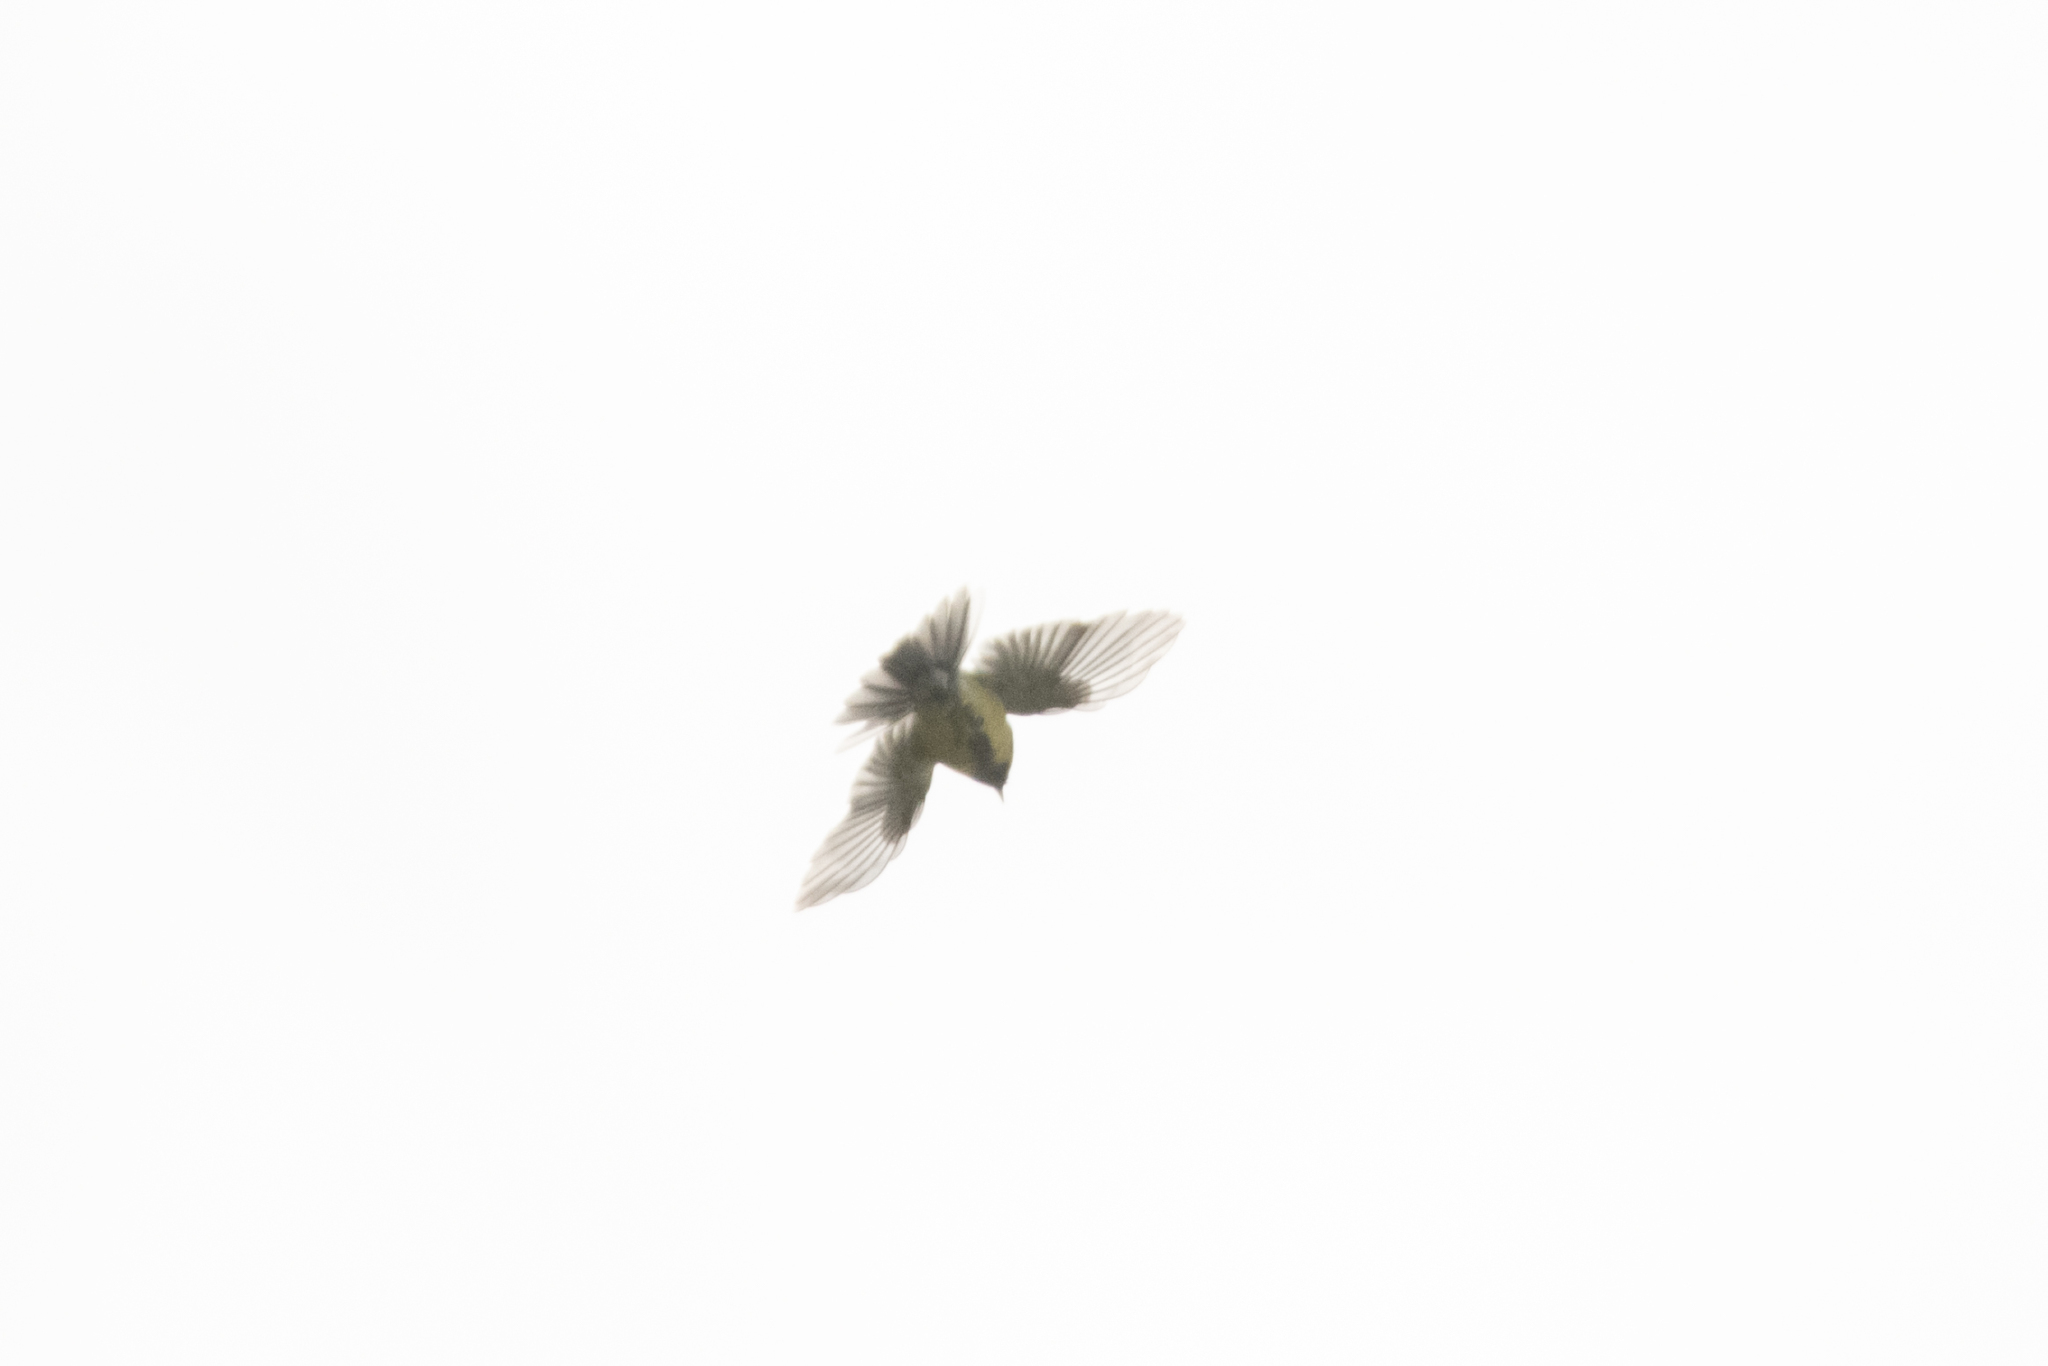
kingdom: Animalia
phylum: Chordata
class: Aves
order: Passeriformes
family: Paridae
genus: Parus
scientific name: Parus major
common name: Great tit
